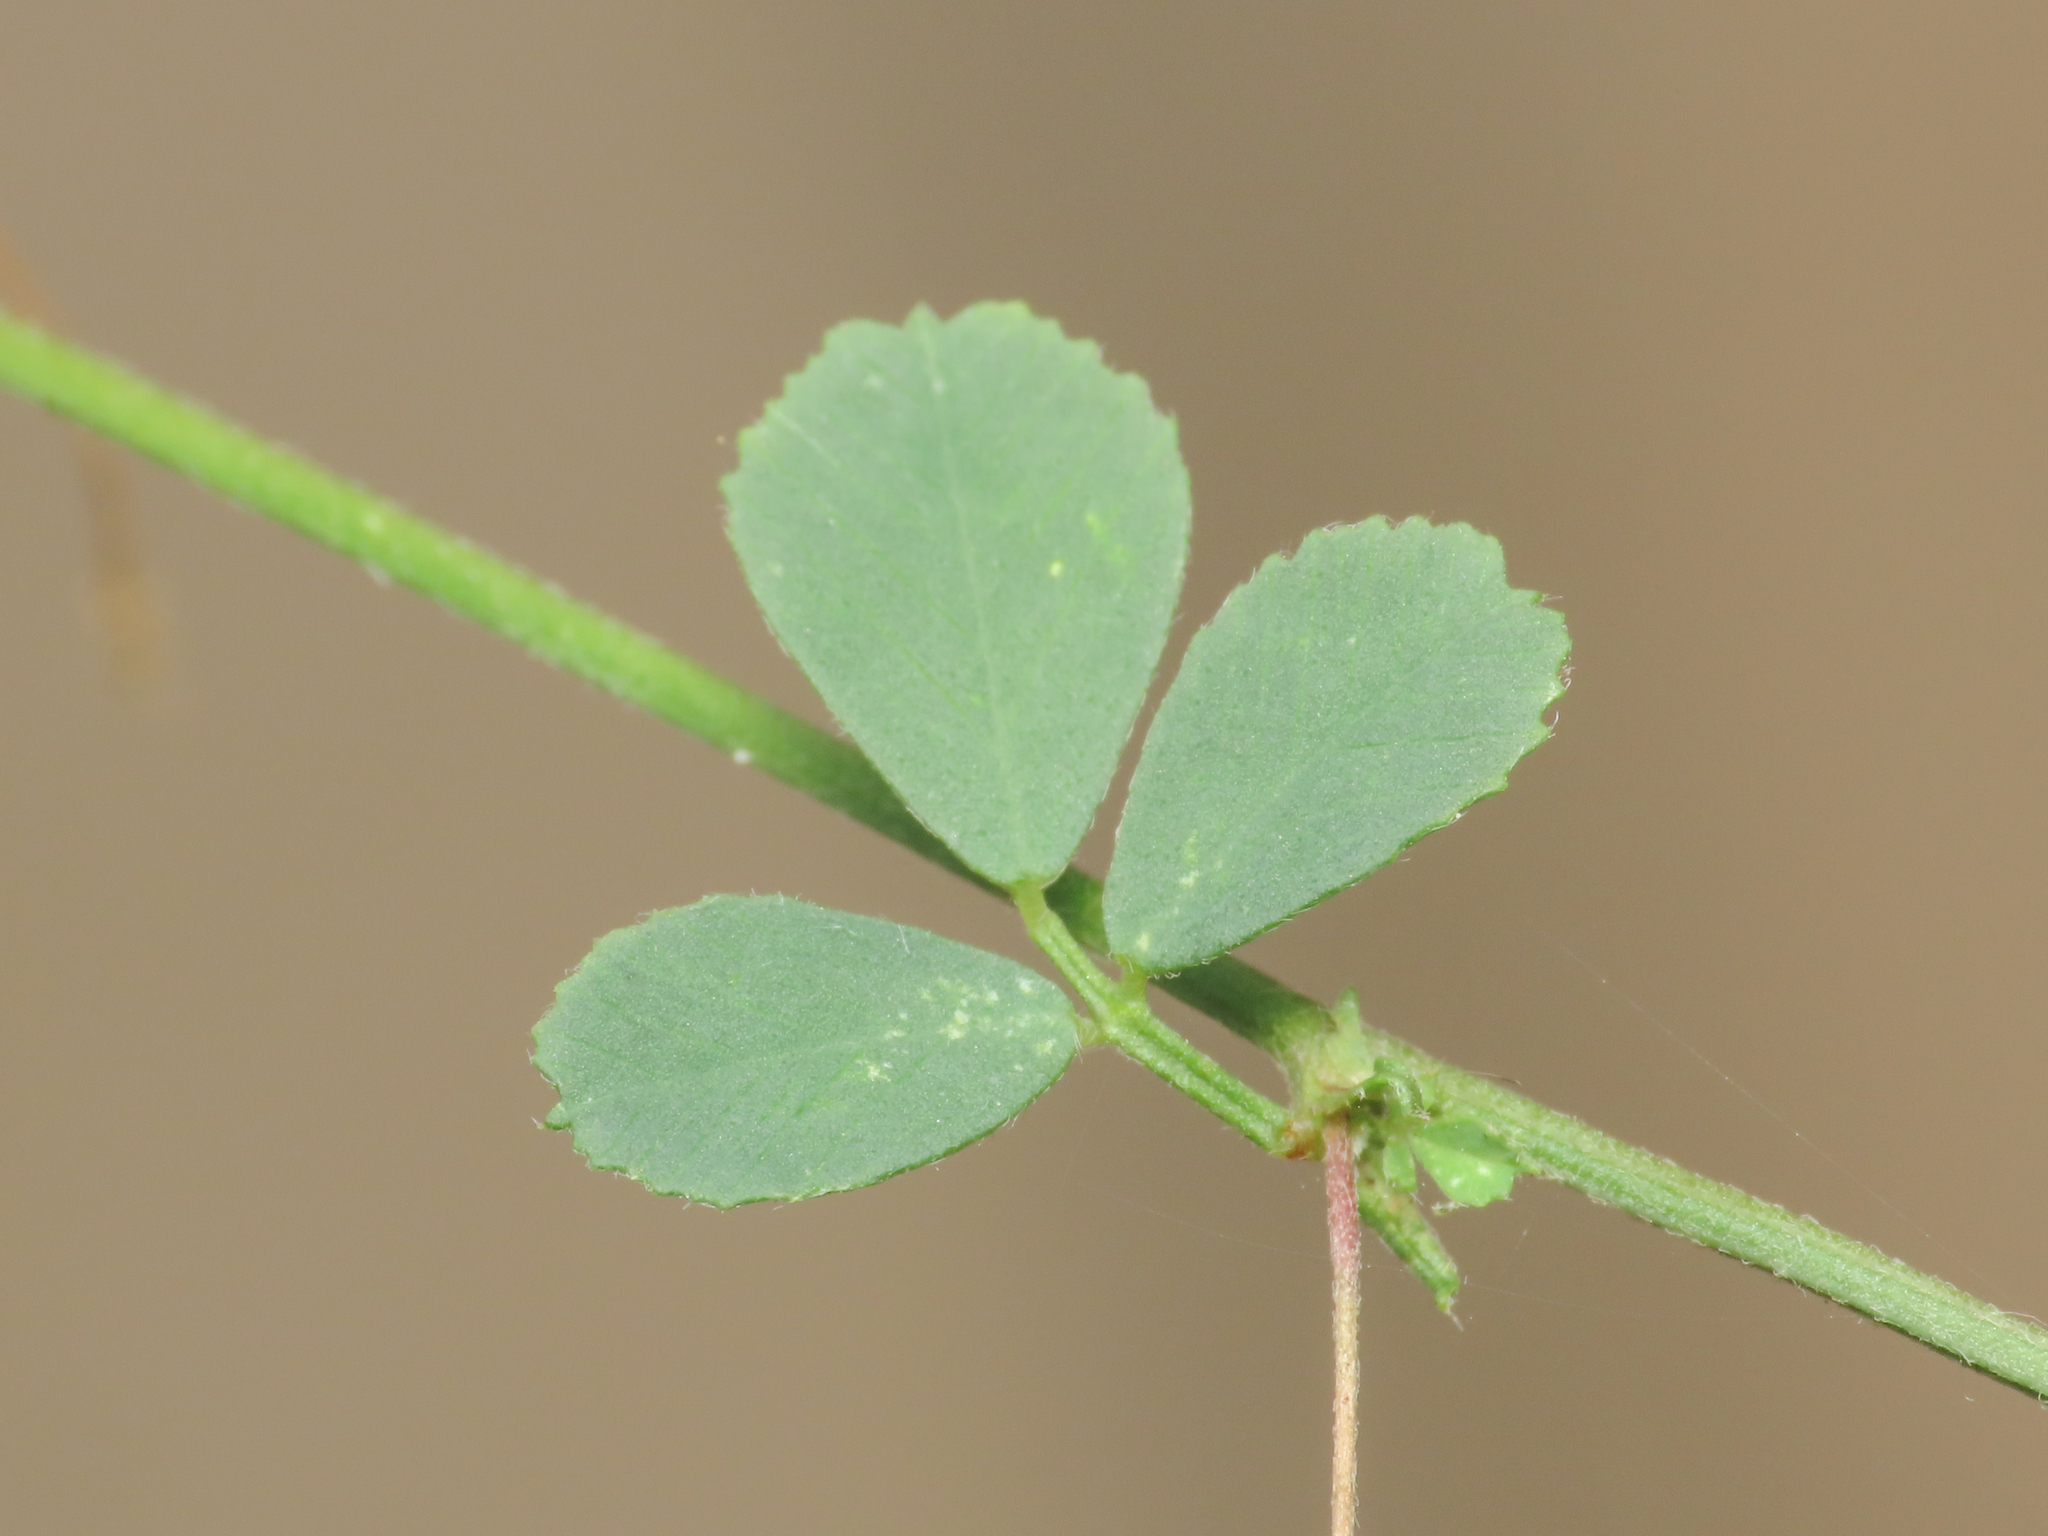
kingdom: Plantae
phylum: Tracheophyta
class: Magnoliopsida
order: Fabales
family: Fabaceae
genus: Medicago
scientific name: Medicago lupulina
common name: Black medick
